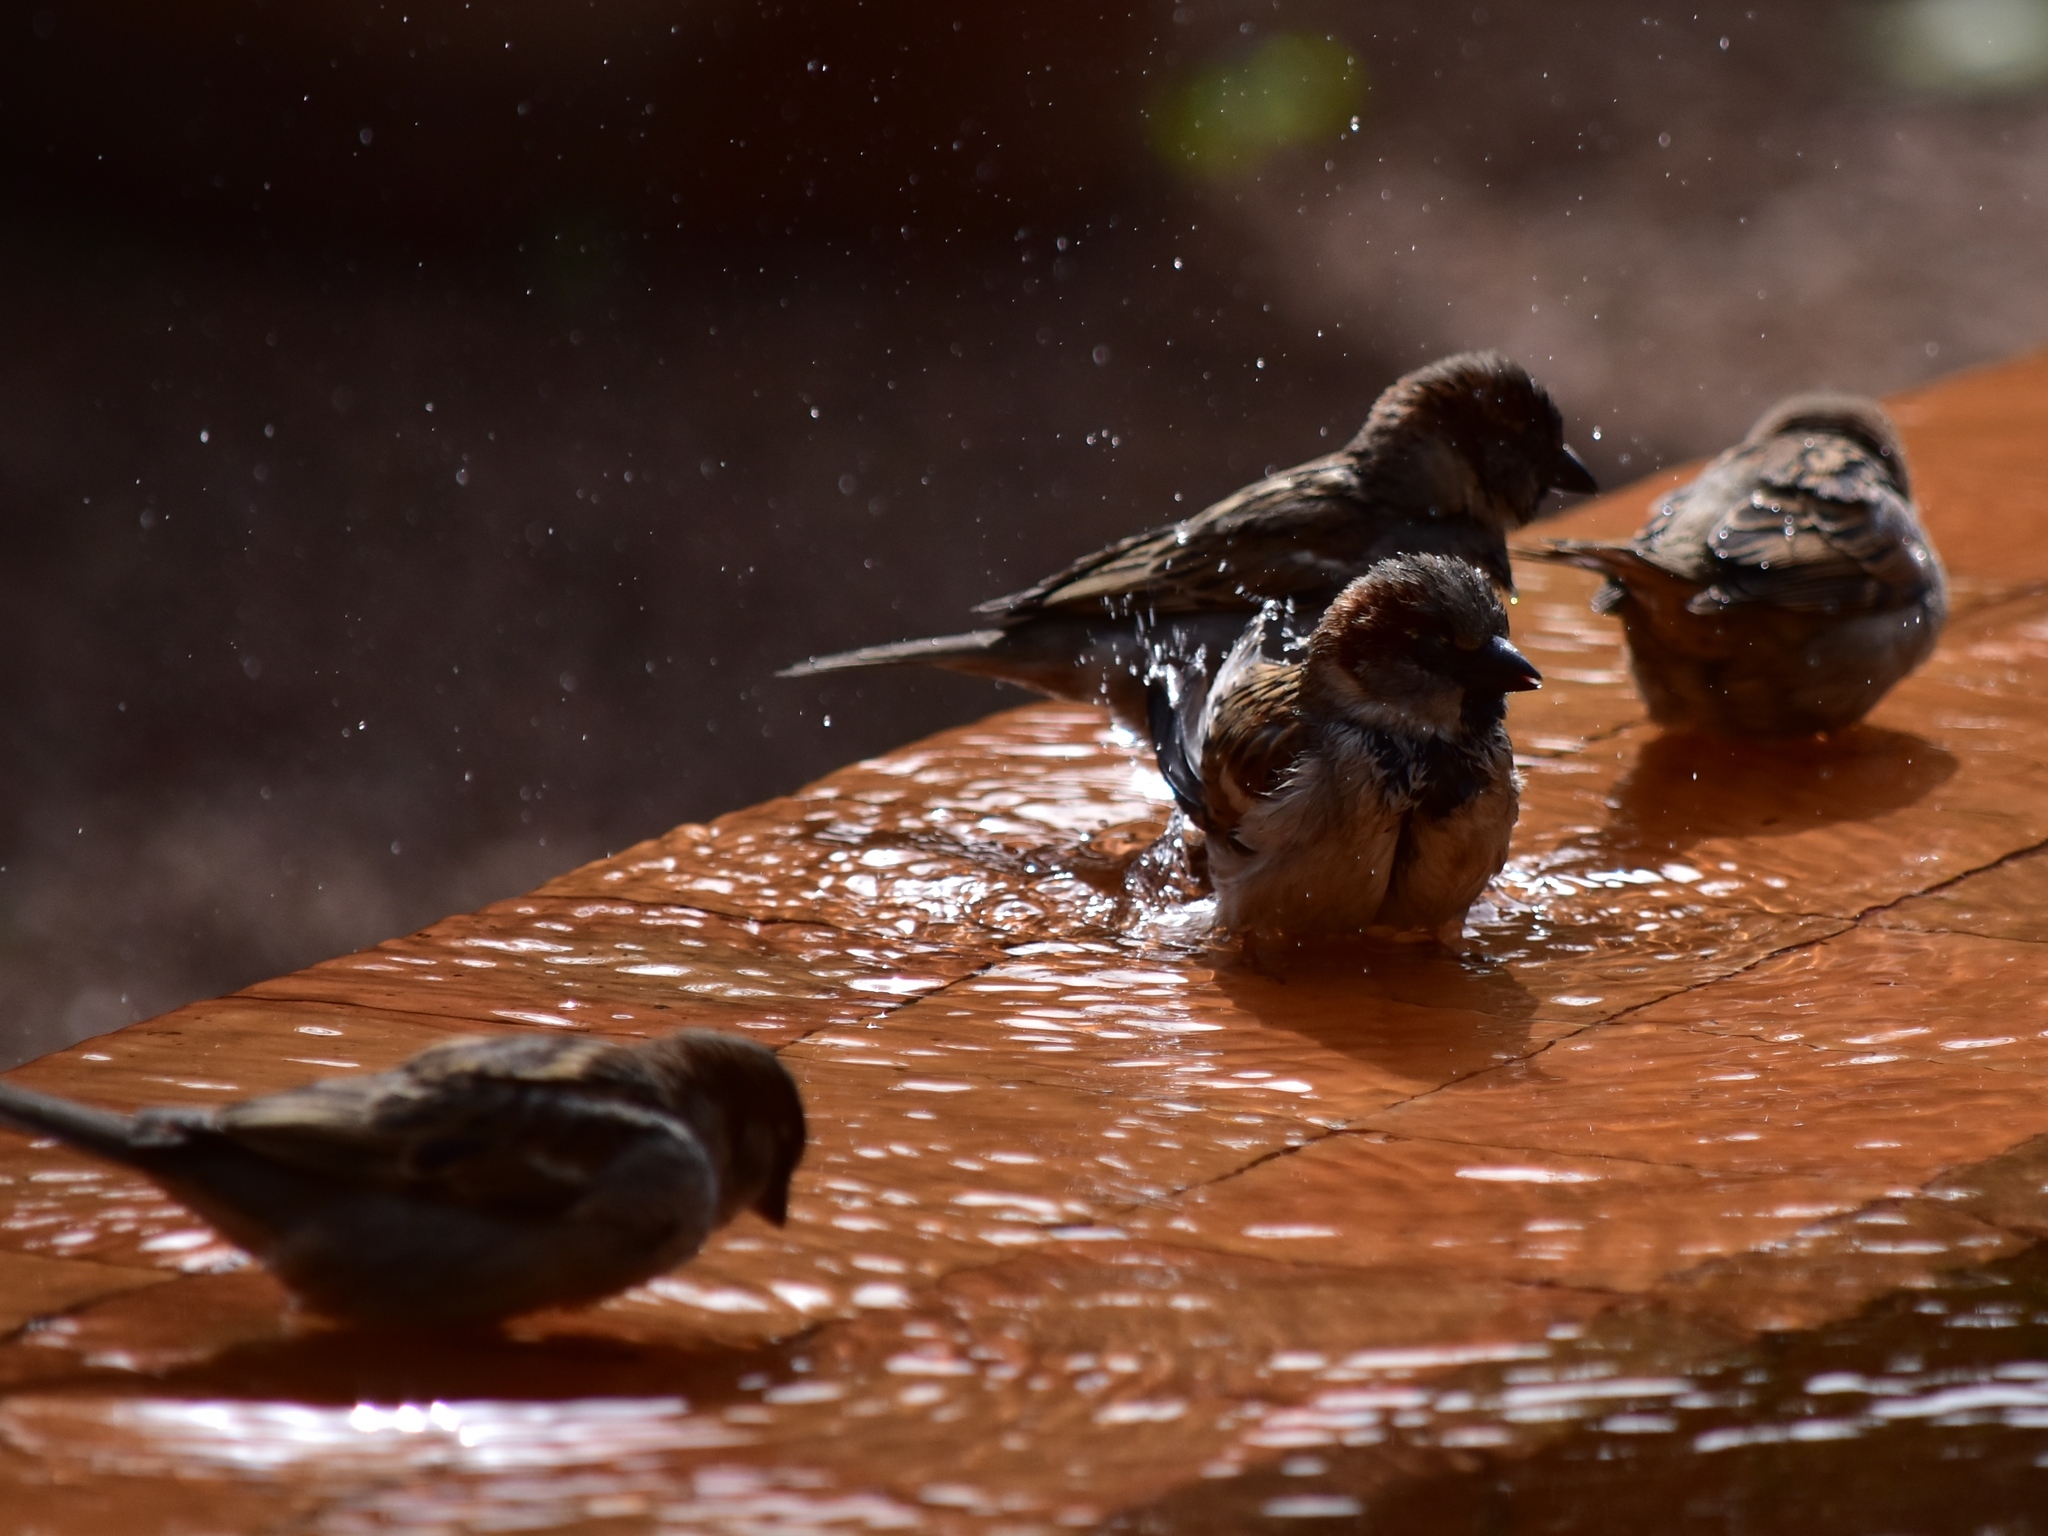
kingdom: Animalia
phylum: Chordata
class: Aves
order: Passeriformes
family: Passeridae
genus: Passer
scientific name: Passer domesticus
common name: House sparrow
